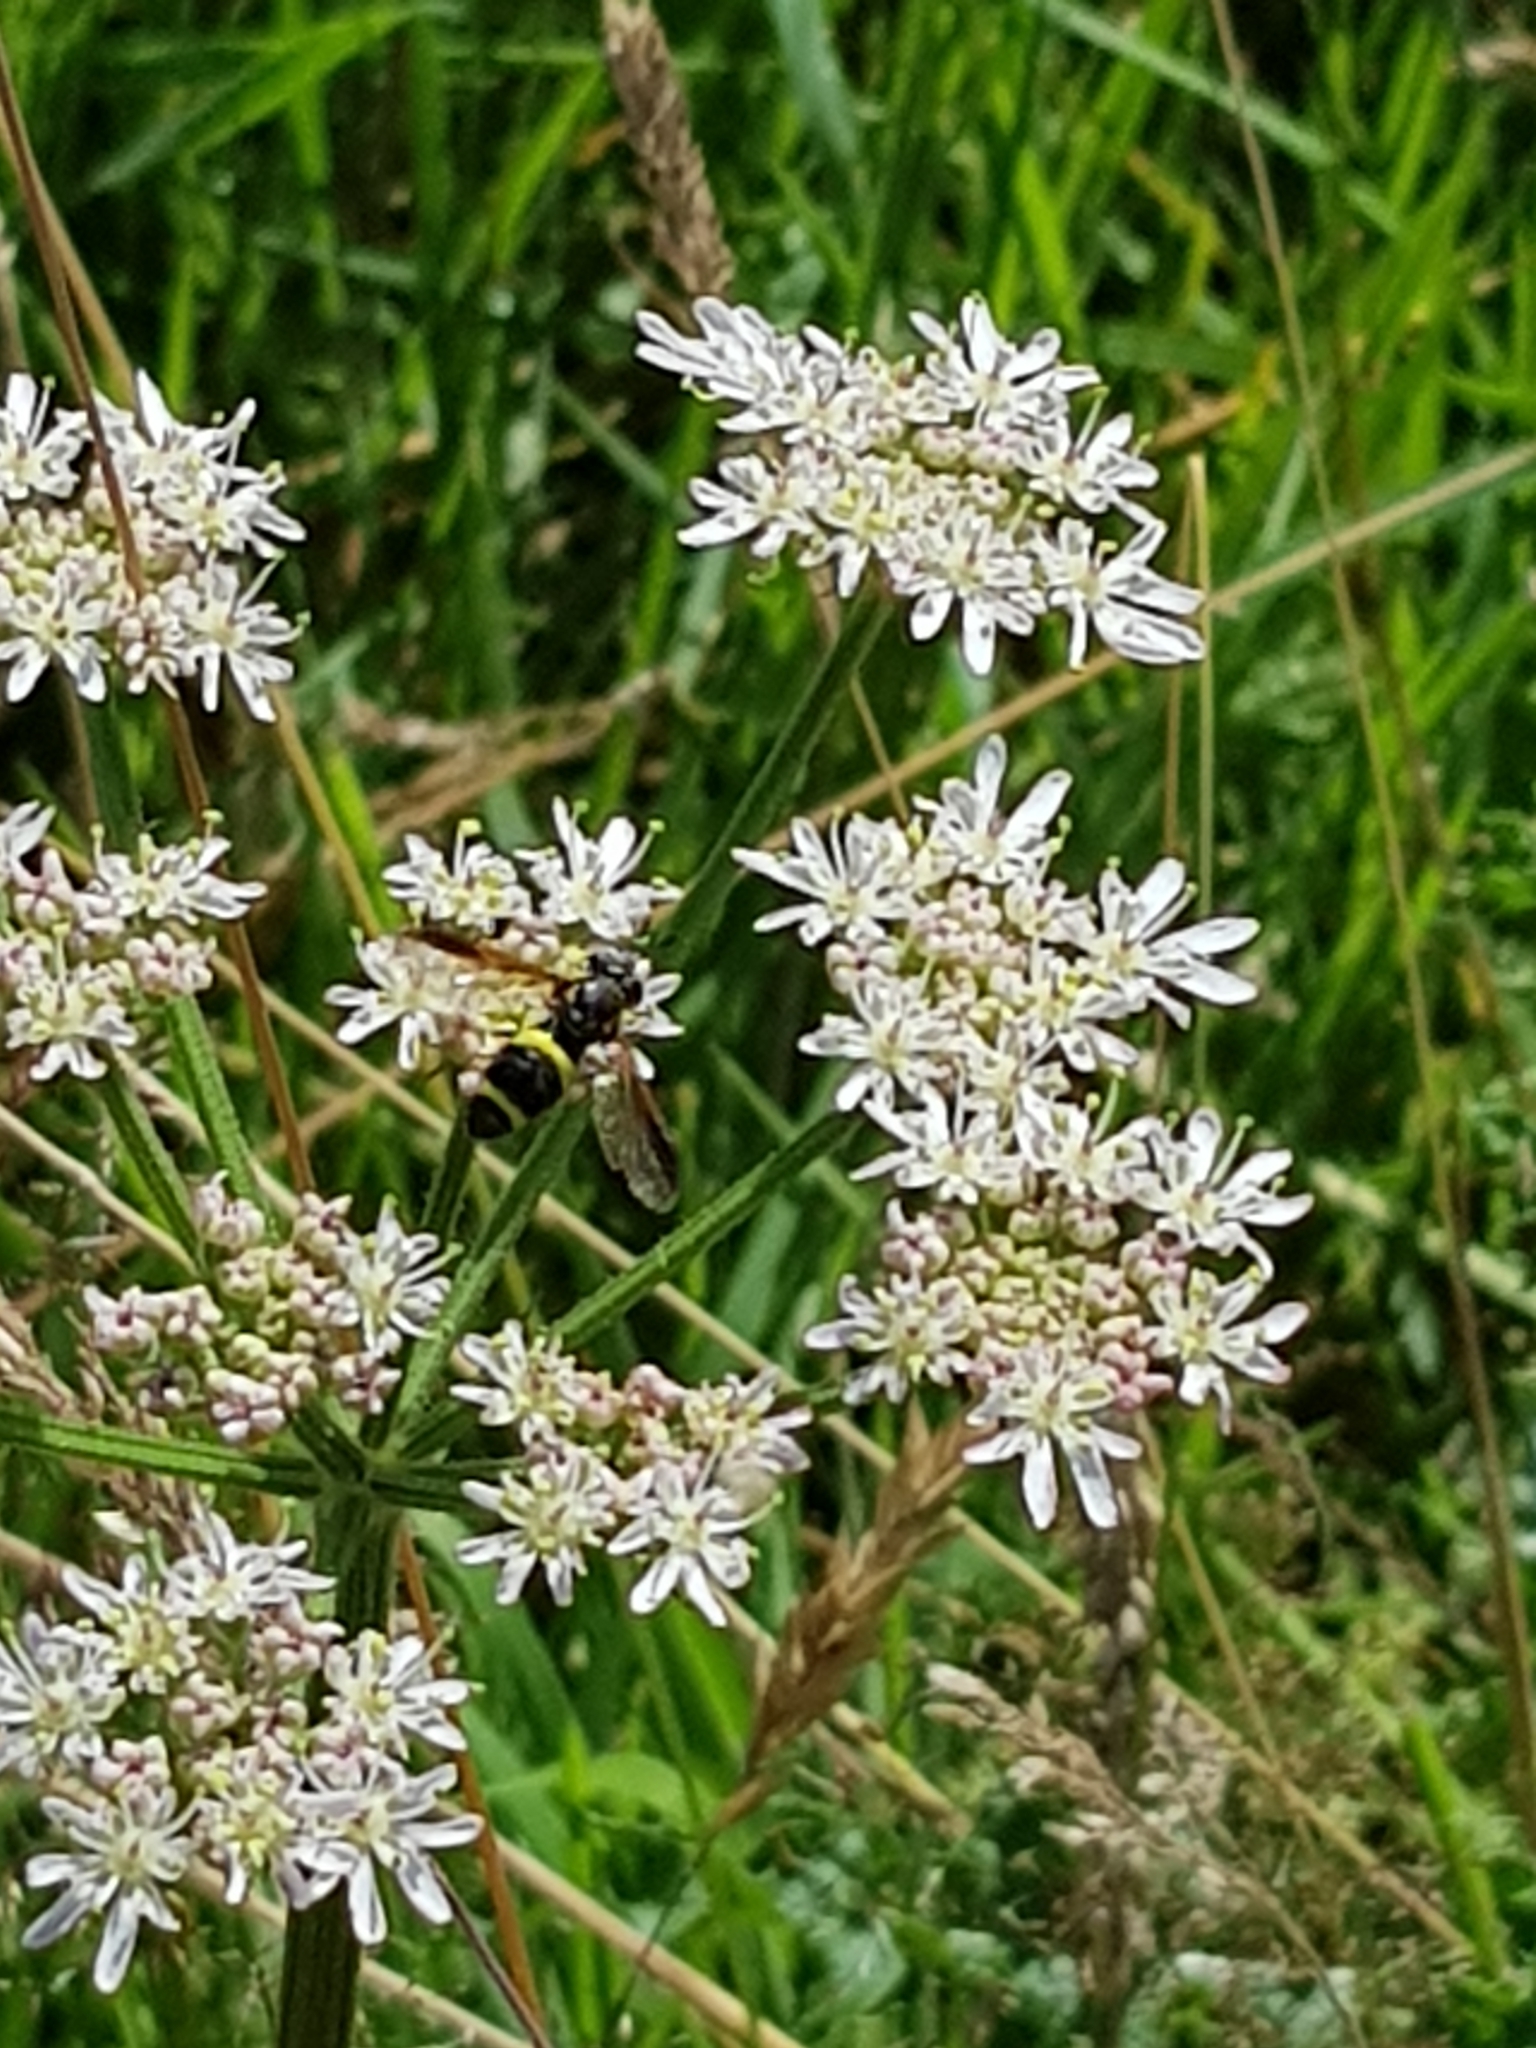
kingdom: Animalia
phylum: Arthropoda
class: Insecta
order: Diptera
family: Syrphidae
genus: Chrysotoxum
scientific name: Chrysotoxum bicincta
